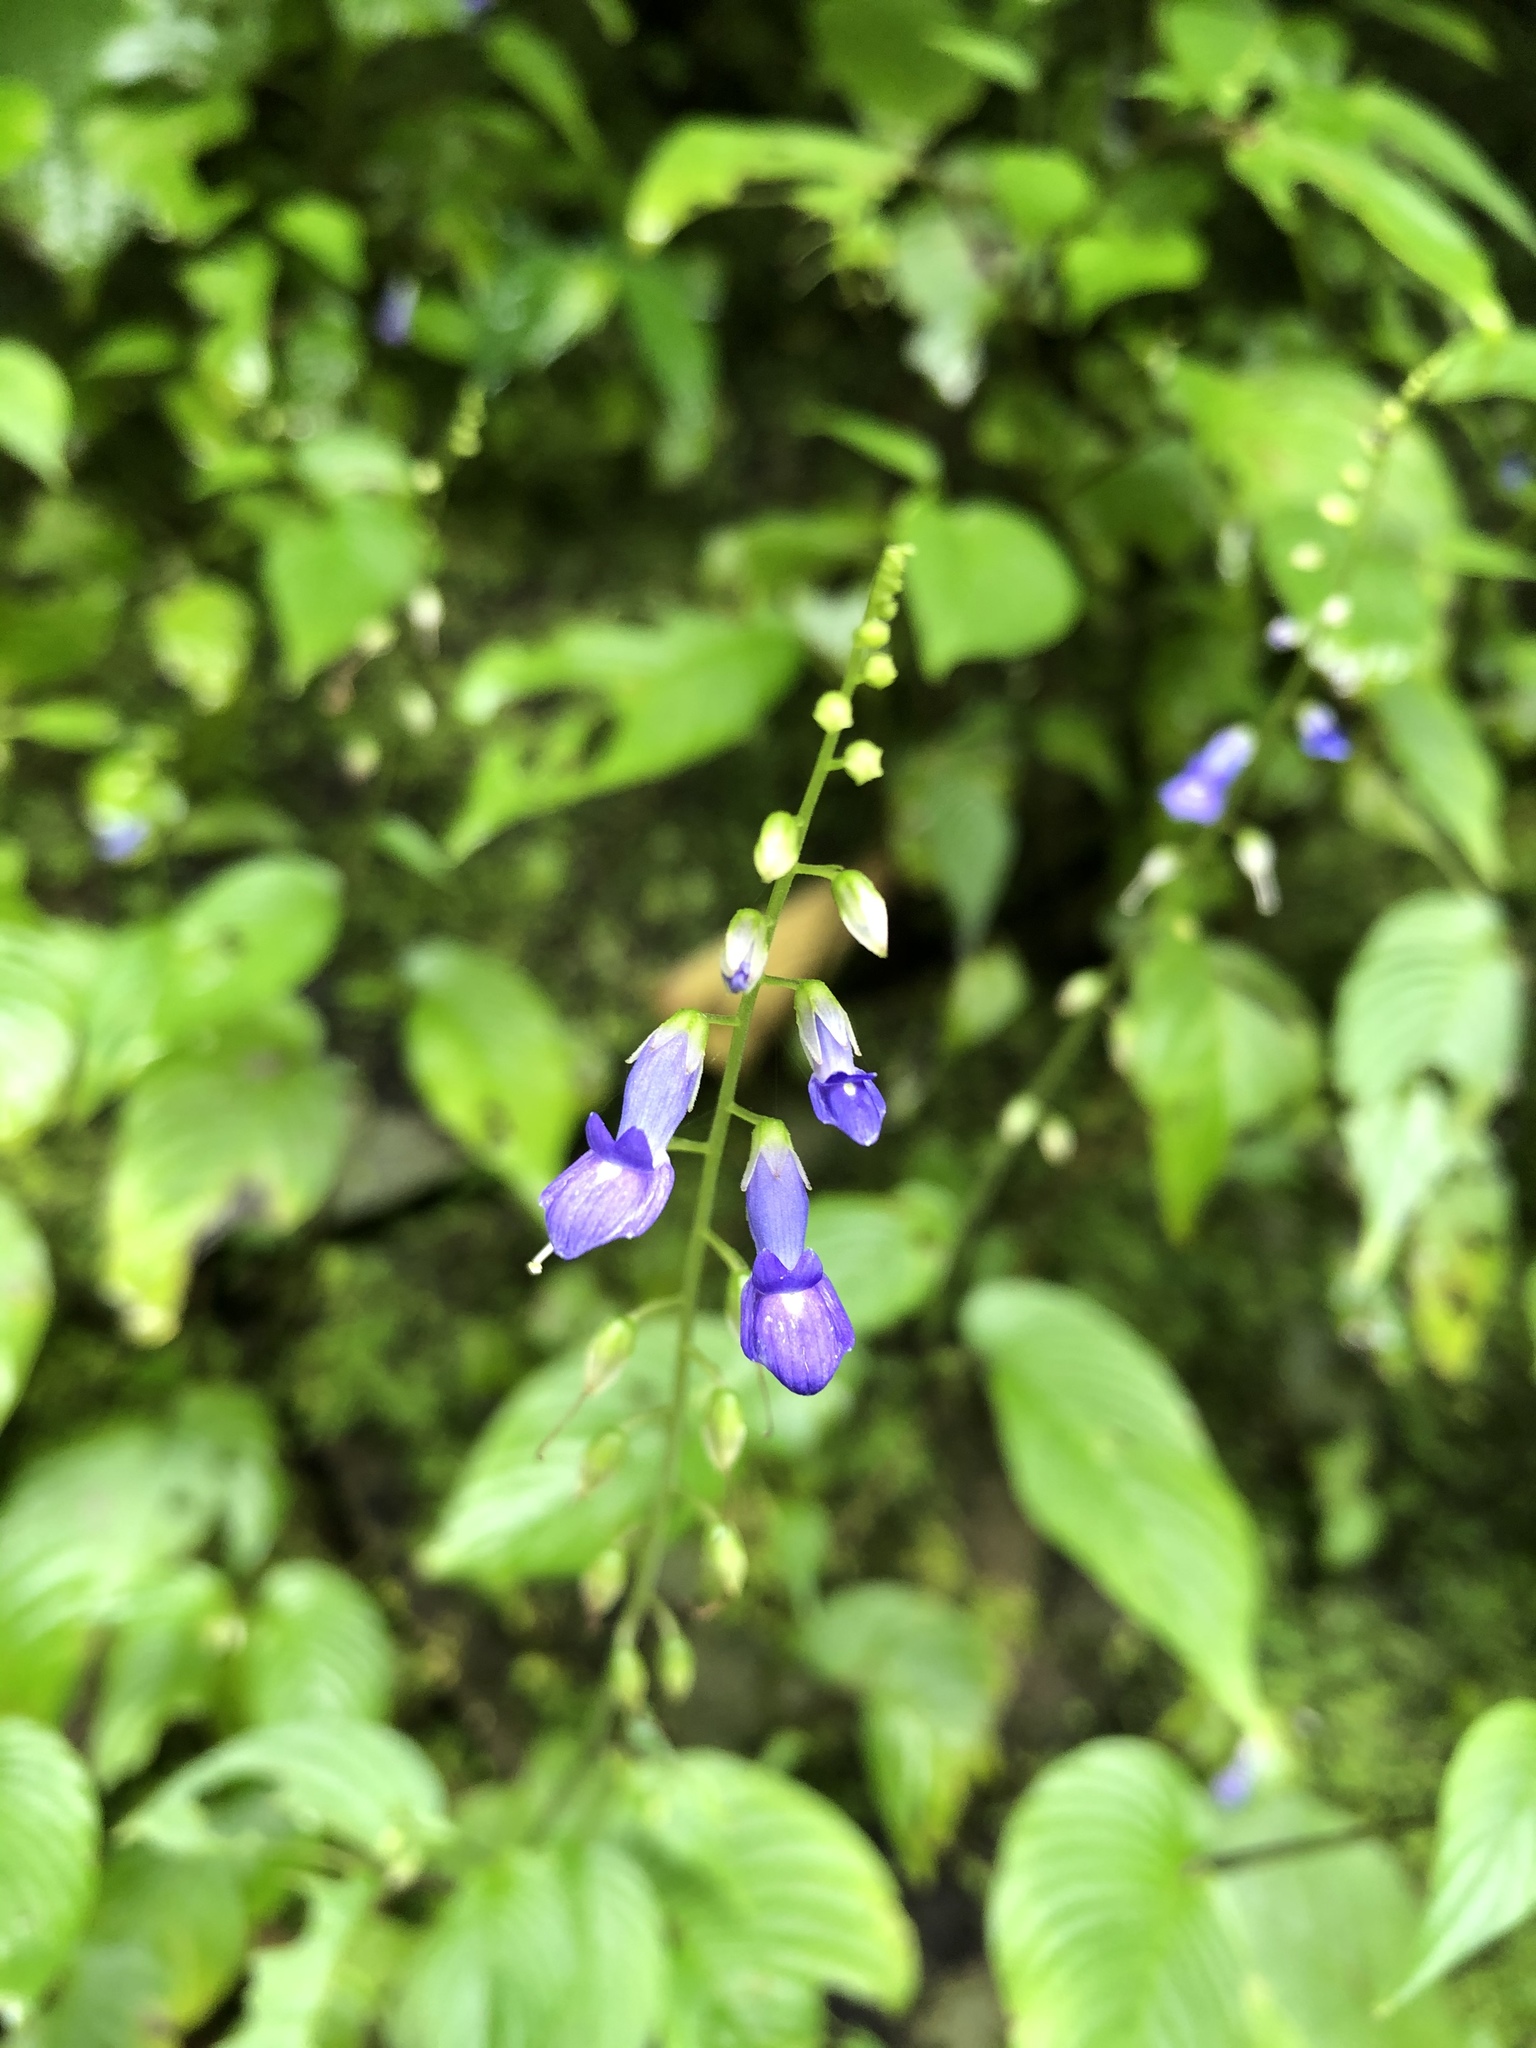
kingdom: Plantae
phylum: Tracheophyta
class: Magnoliopsida
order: Lamiales
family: Gesneriaceae
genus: Rhynchoglossum
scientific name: Rhynchoglossum obliquum
